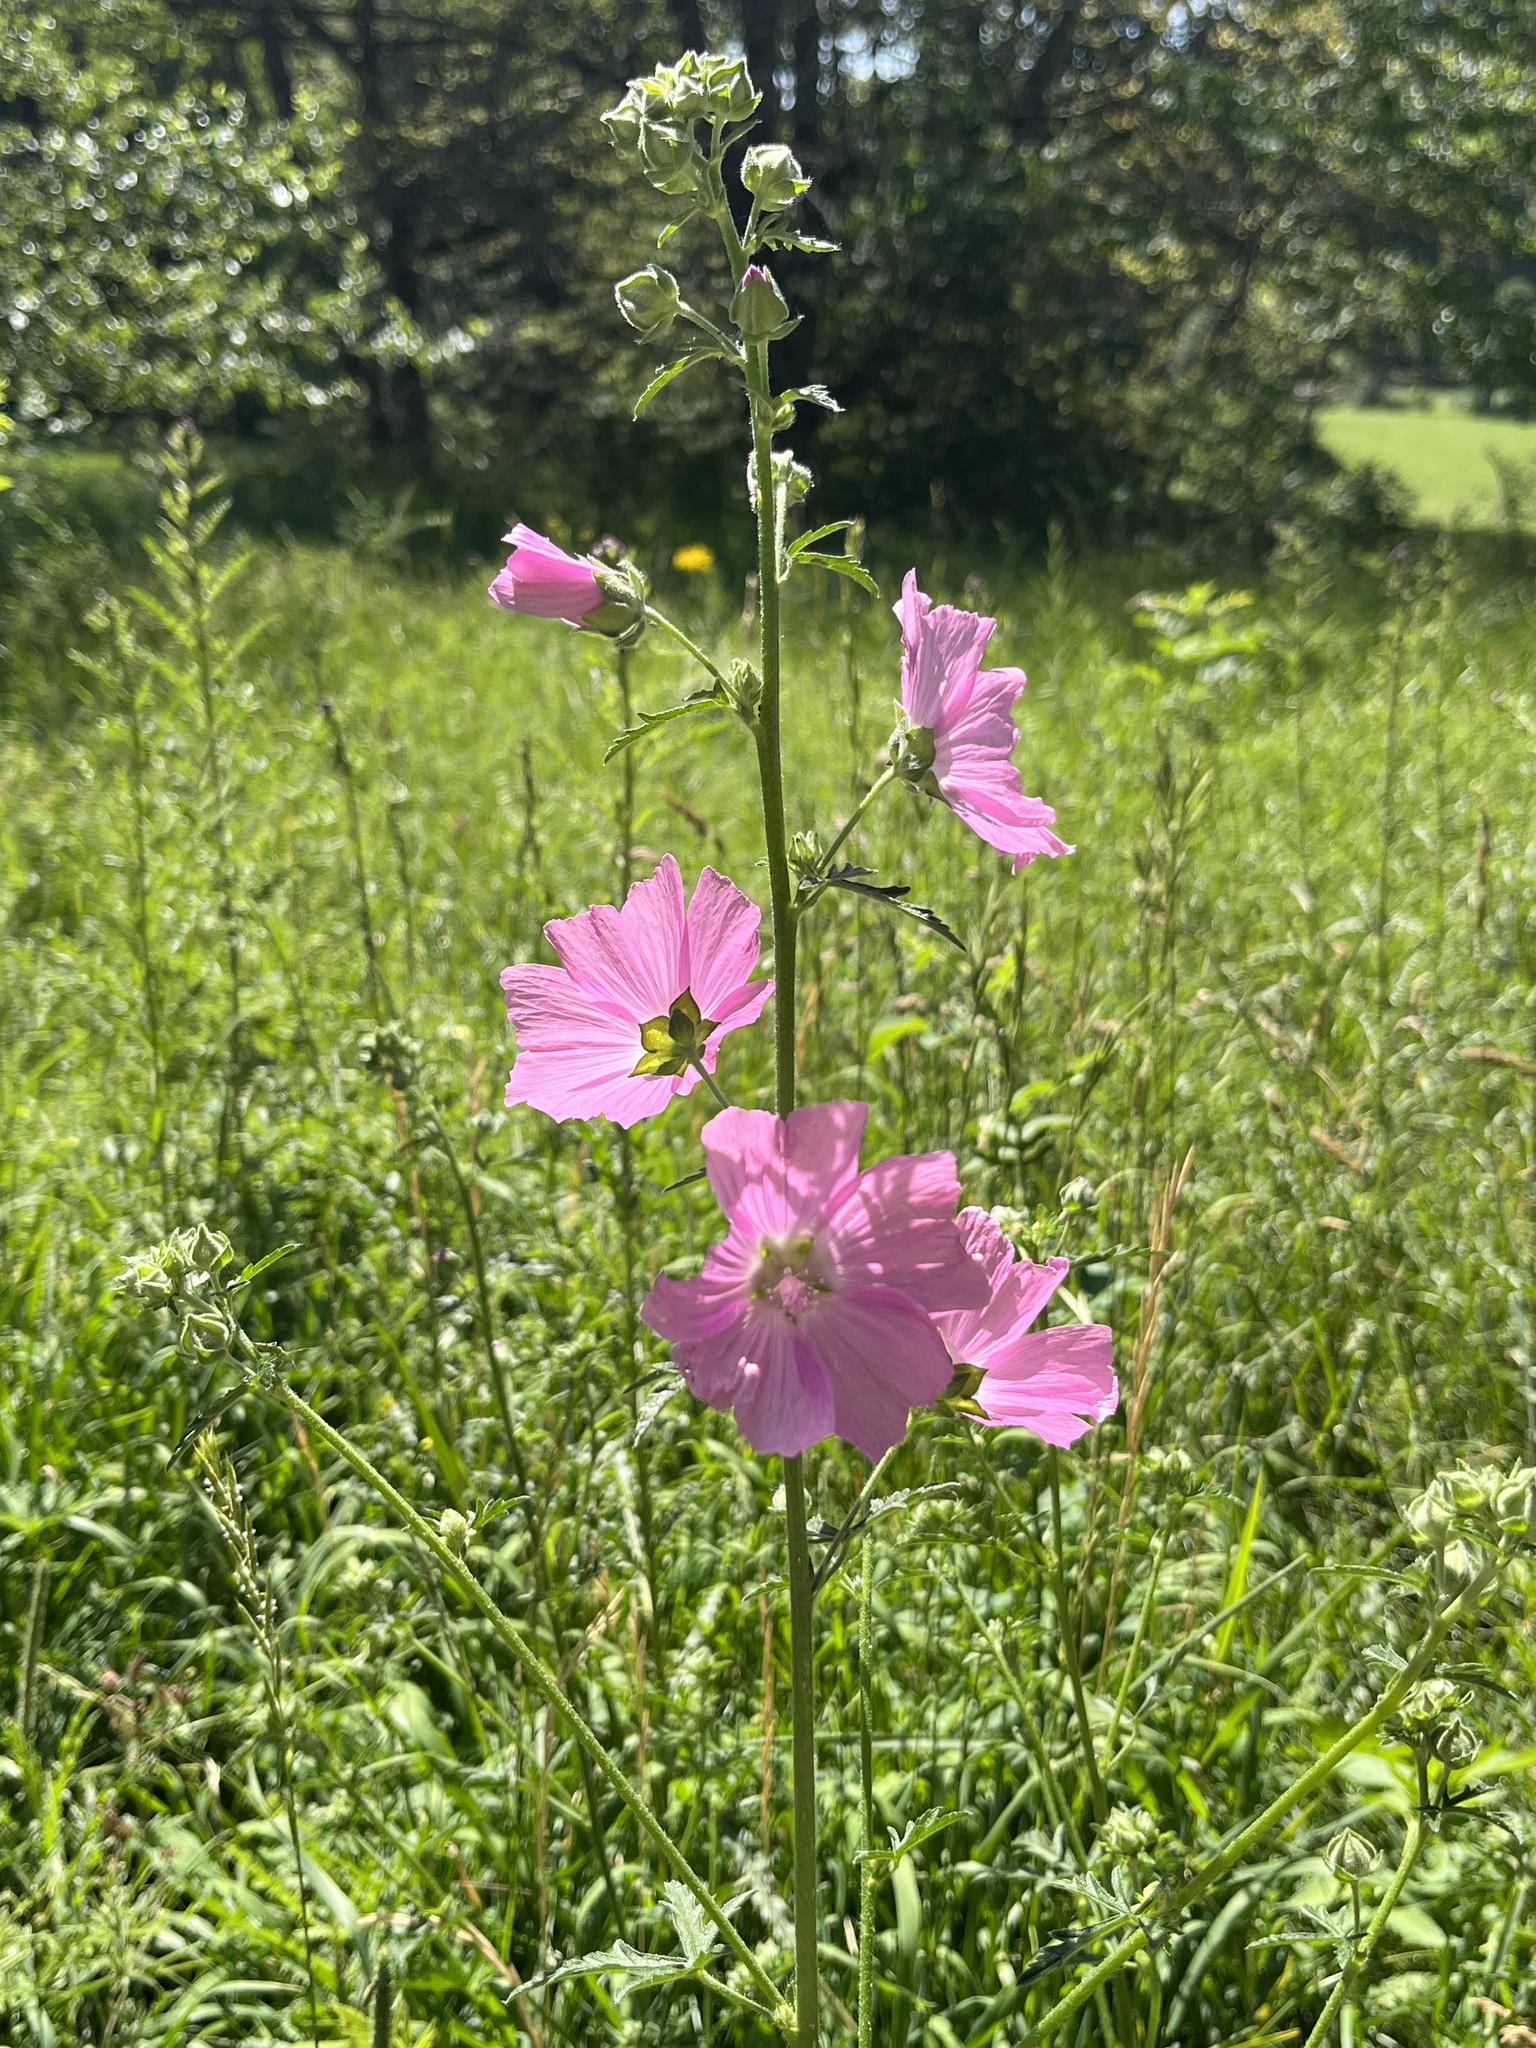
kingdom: Plantae
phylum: Tracheophyta
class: Magnoliopsida
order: Malvales
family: Malvaceae
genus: Malva
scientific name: Malva alcea
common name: Greater musk-mallow
